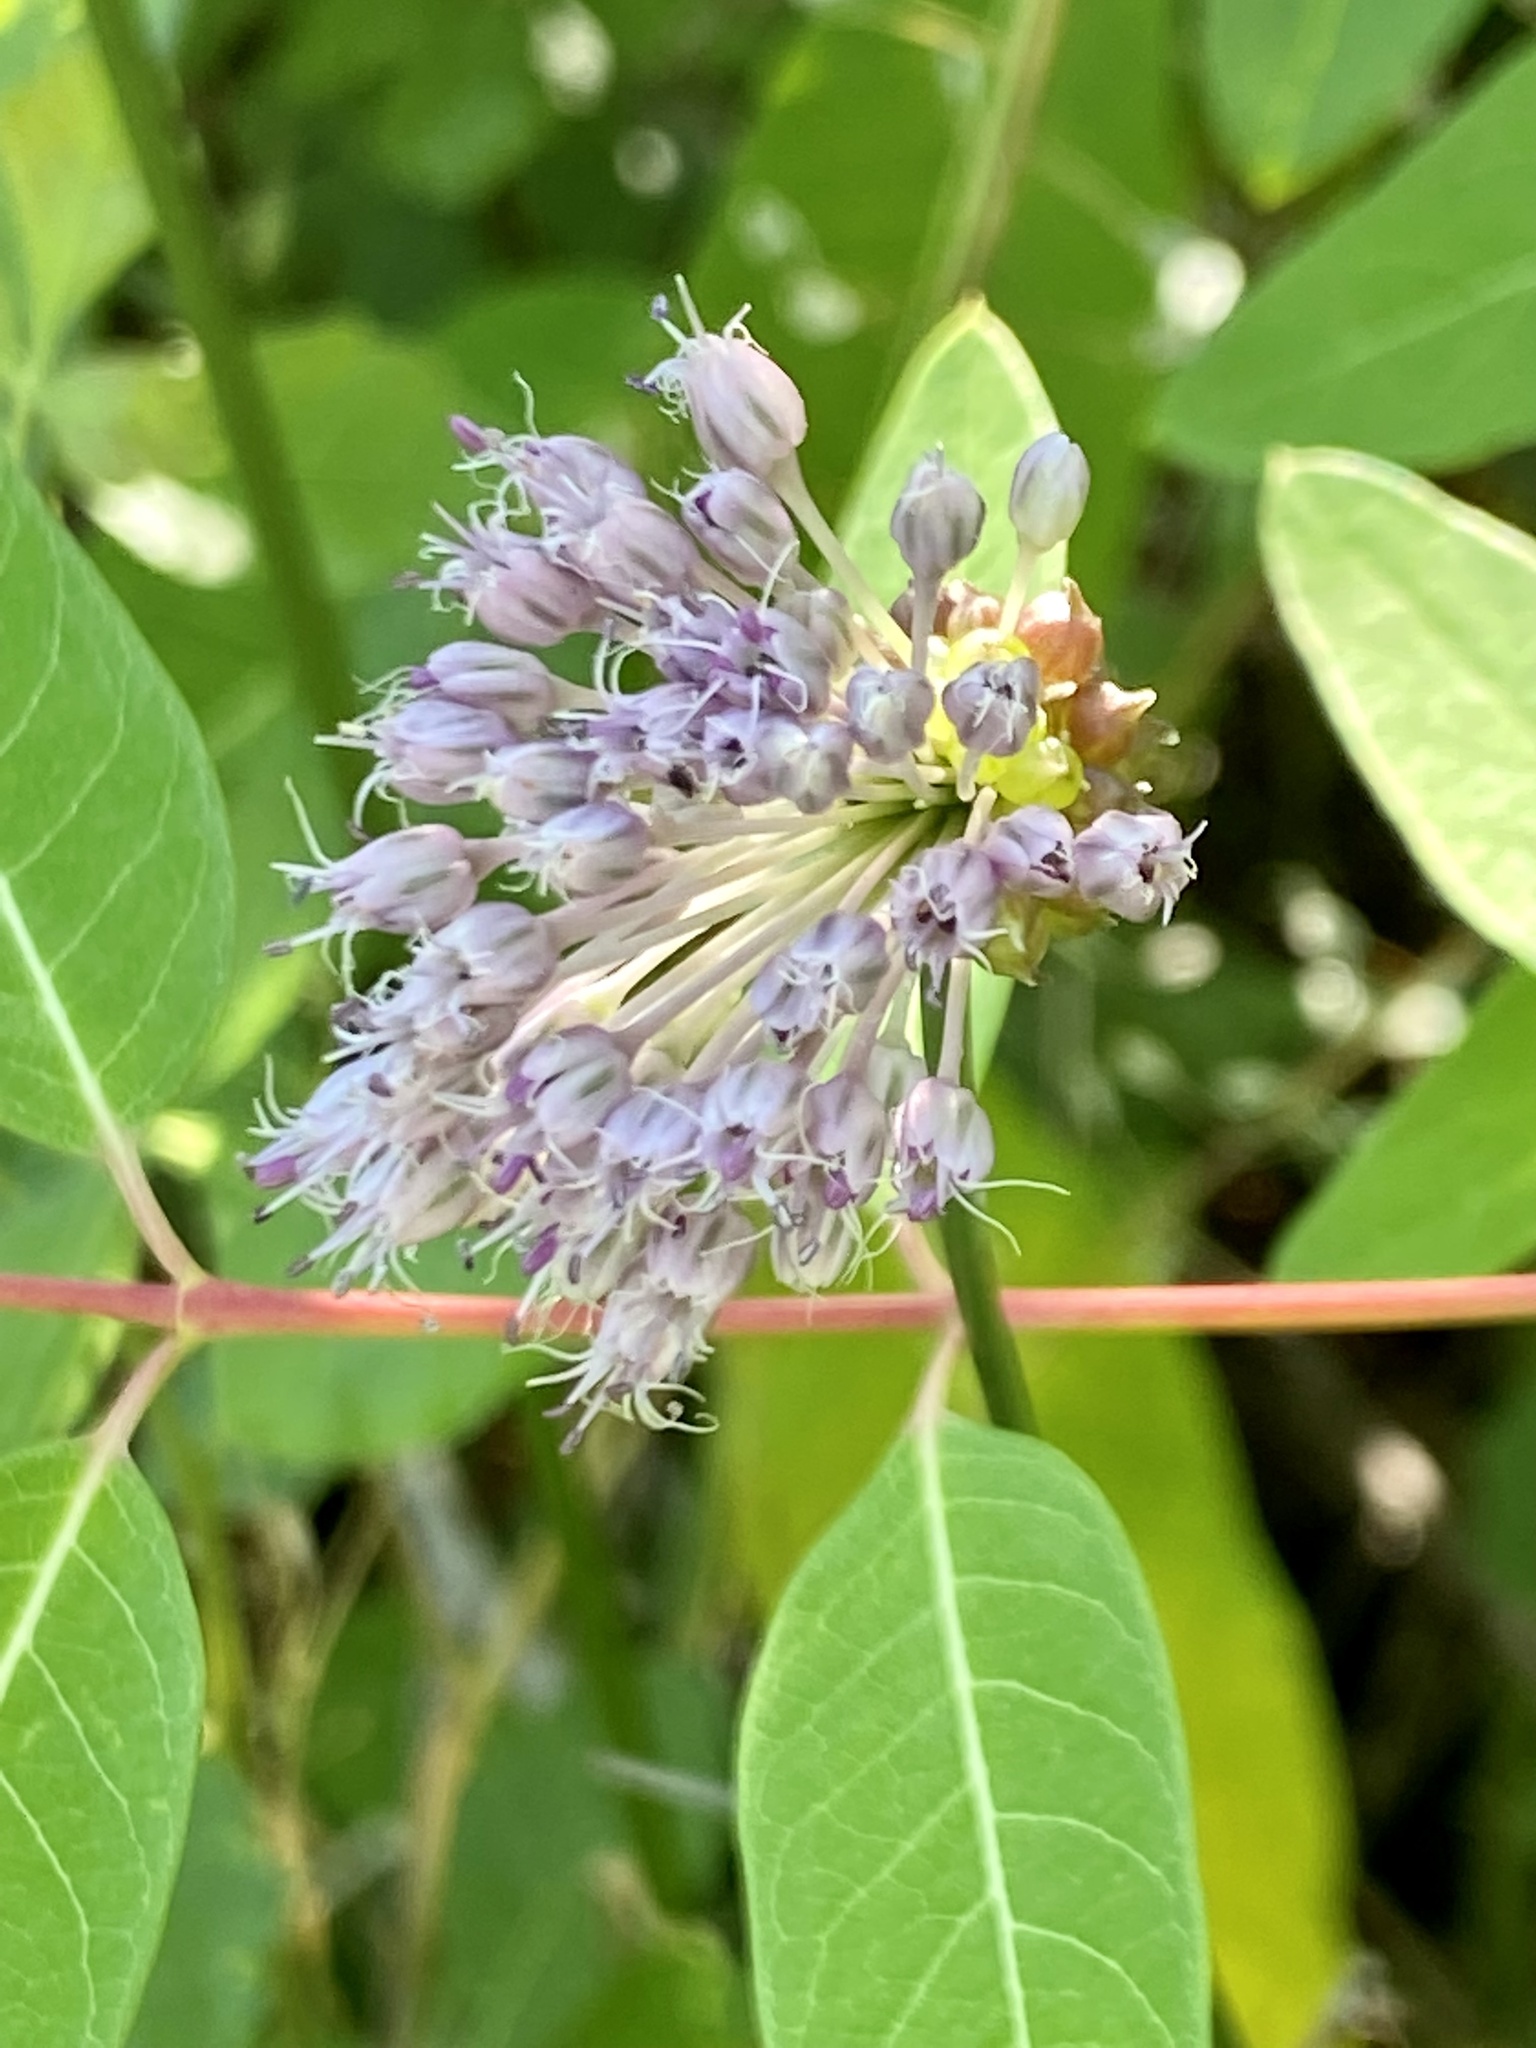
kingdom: Plantae
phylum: Tracheophyta
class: Liliopsida
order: Asparagales
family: Amaryllidaceae
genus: Allium
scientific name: Allium vineale
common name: Crow garlic
